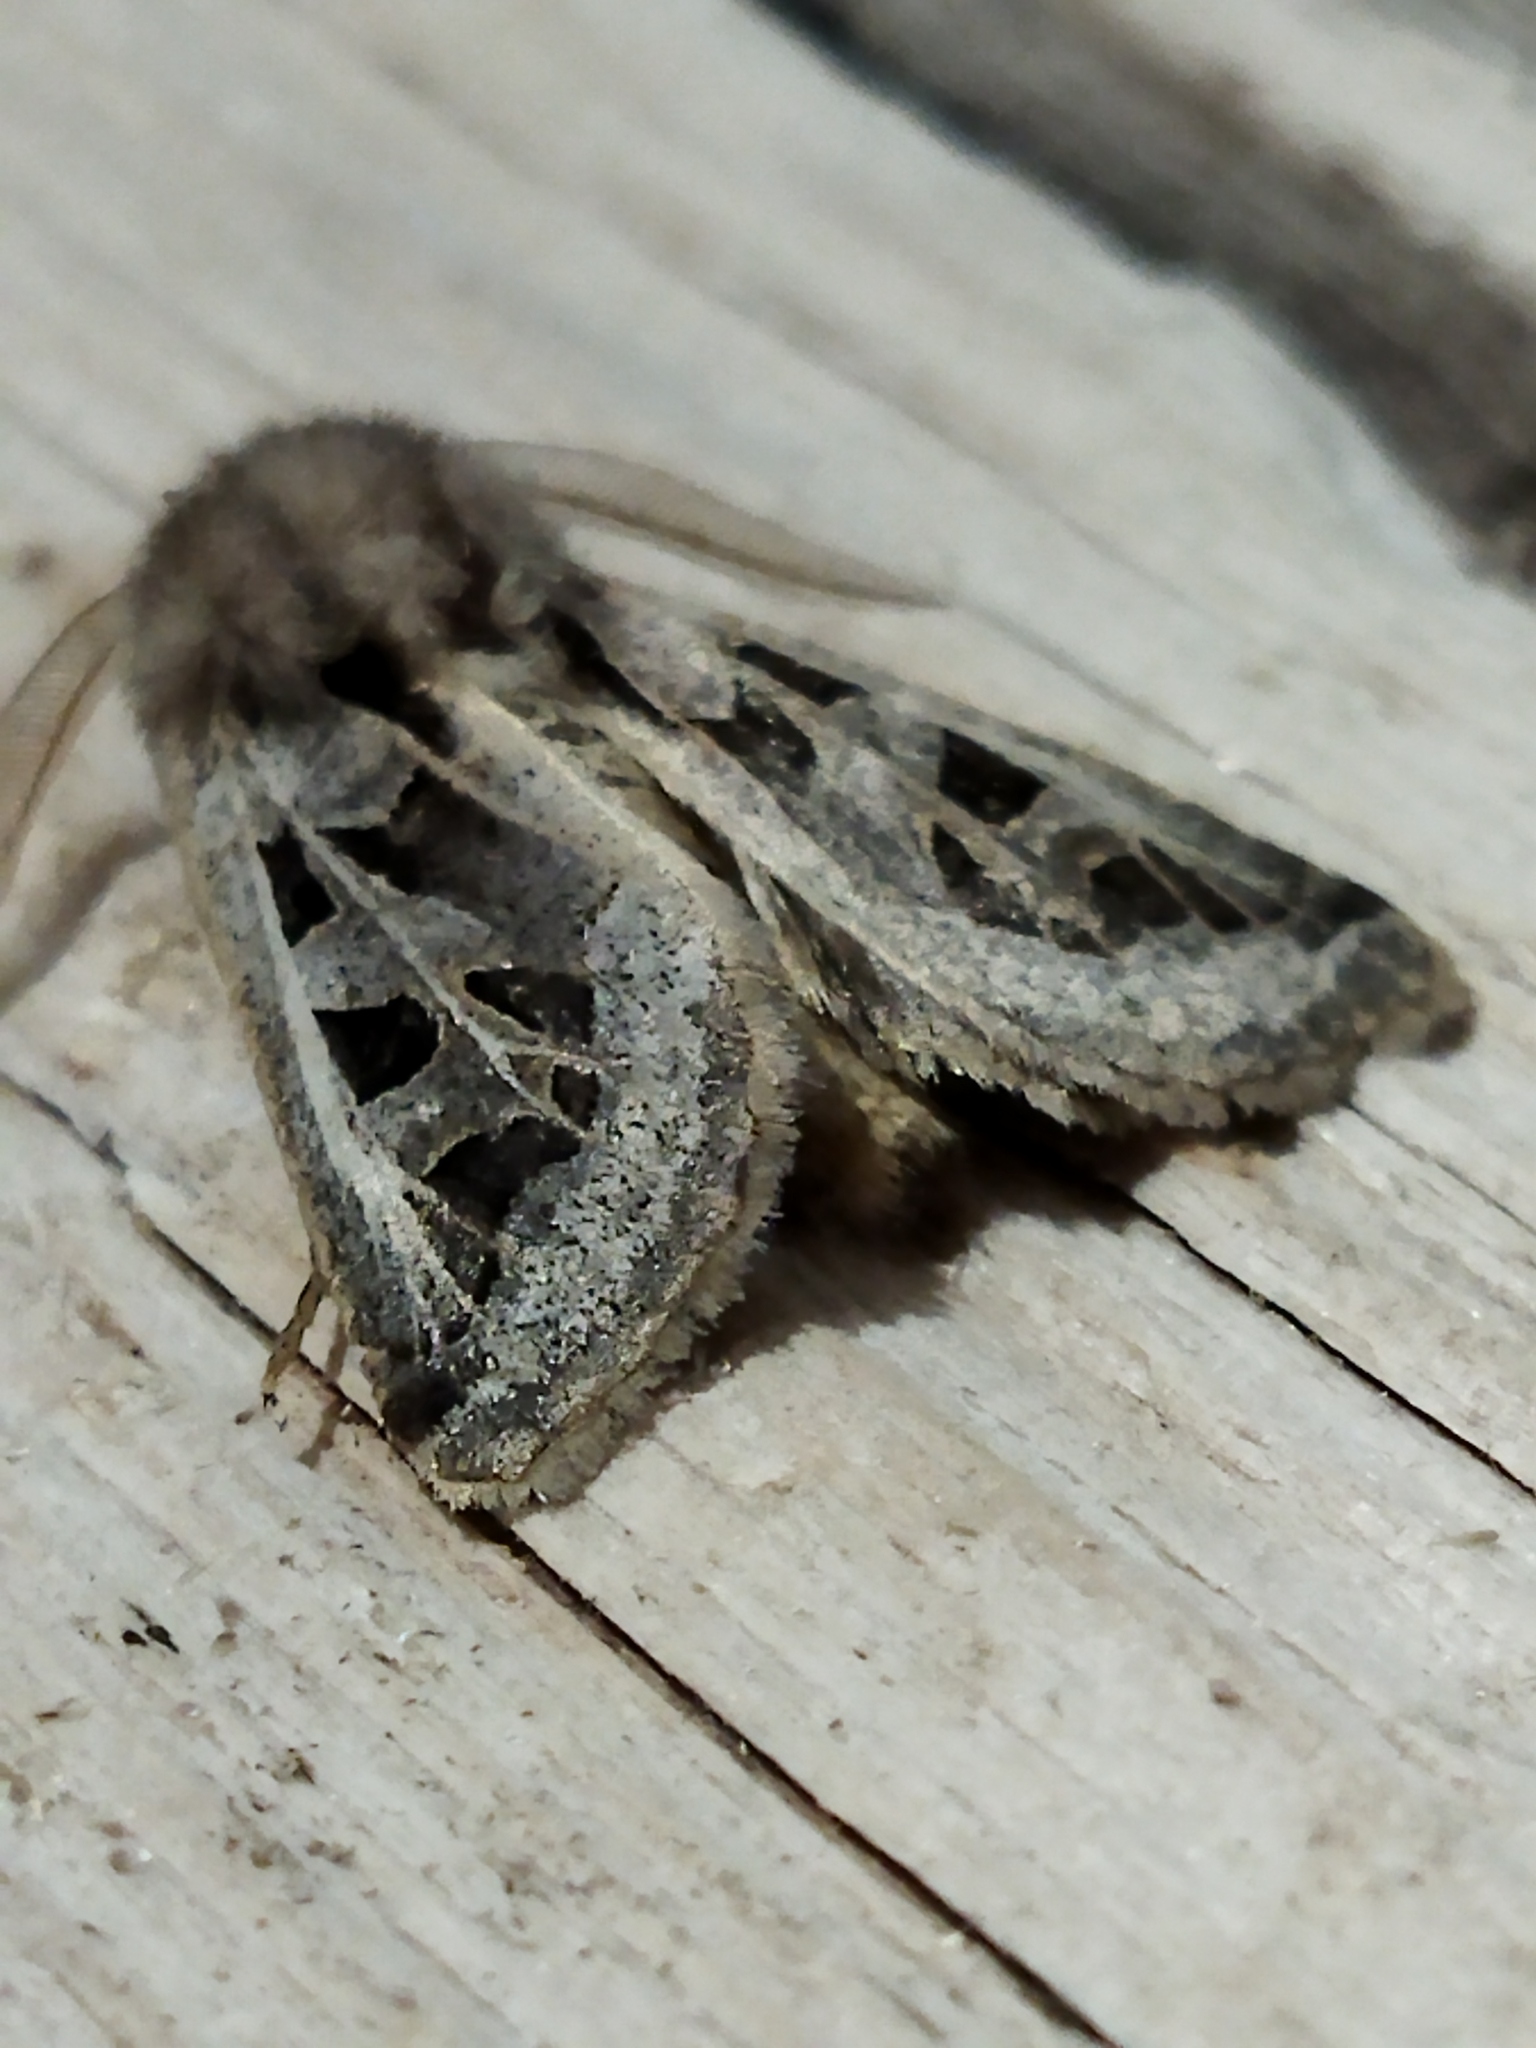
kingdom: Animalia
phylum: Arthropoda
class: Insecta
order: Lepidoptera
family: Noctuidae
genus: Episema
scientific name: Episema glaucina
